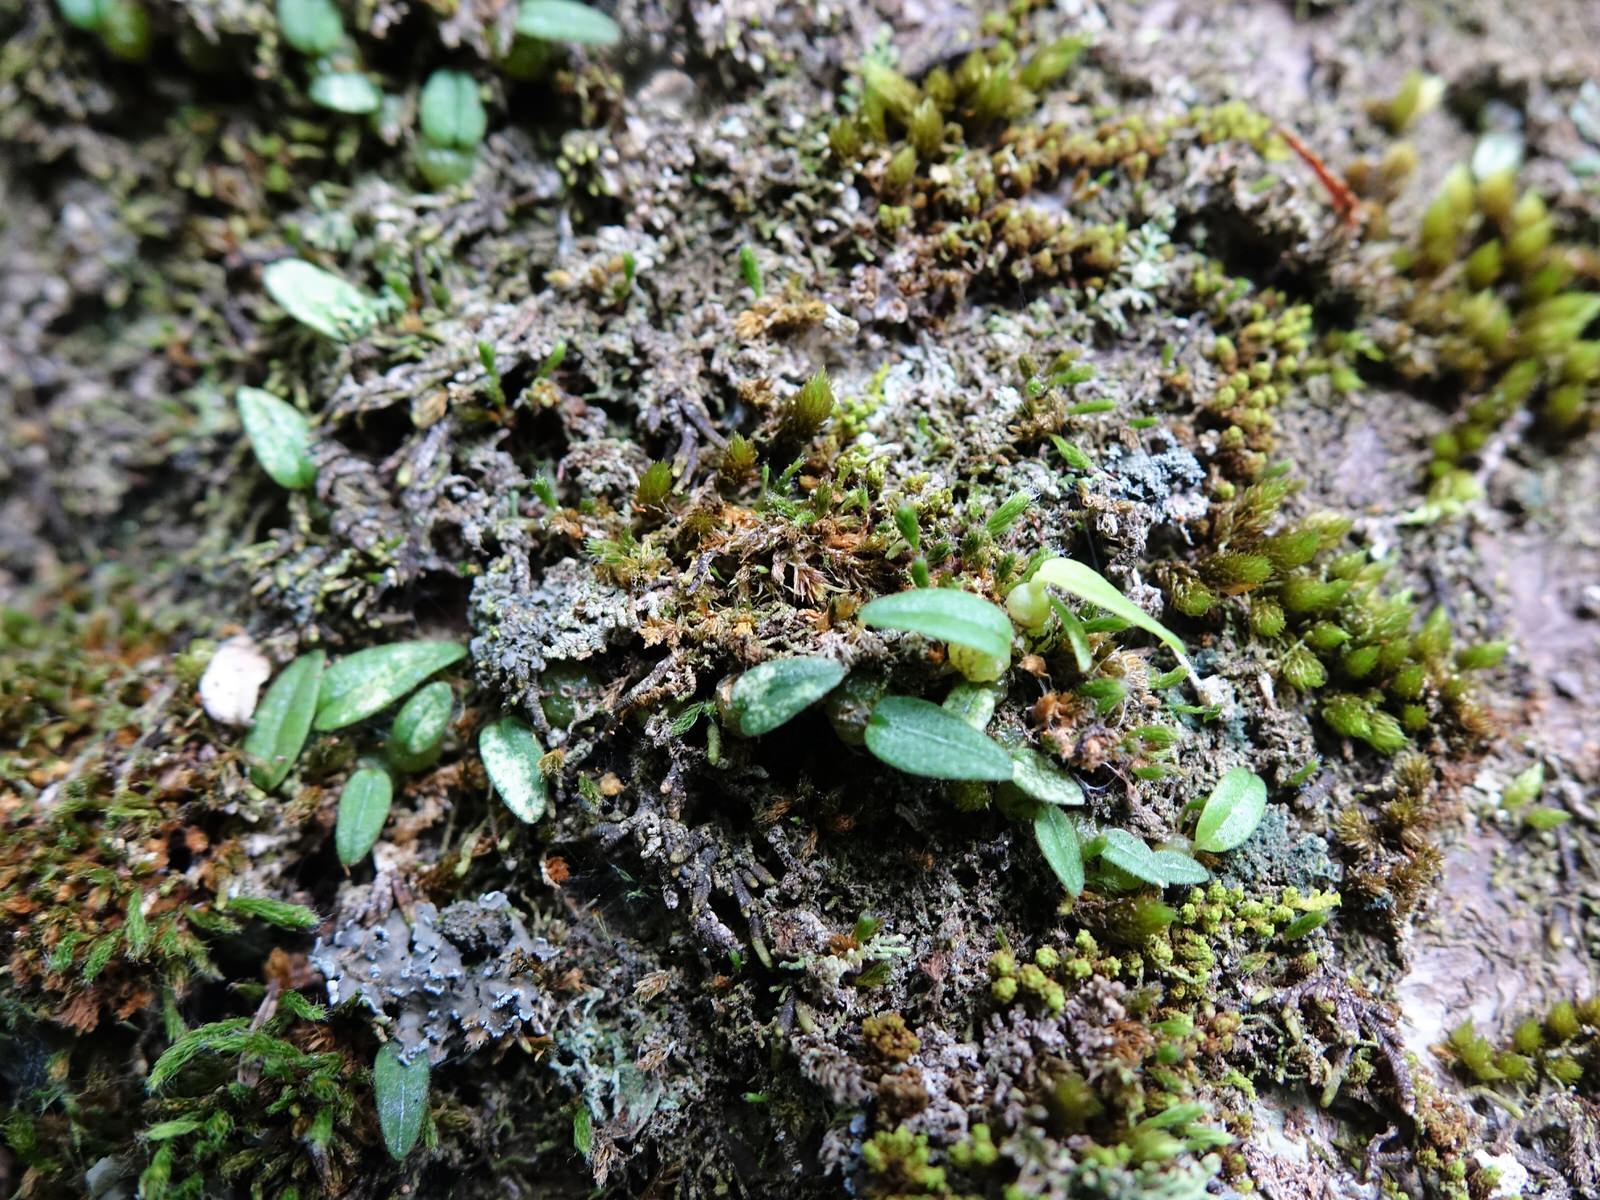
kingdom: Plantae
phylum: Tracheophyta
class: Liliopsida
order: Asparagales
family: Orchidaceae
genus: Bulbophyllum
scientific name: Bulbophyllum pygmaeum
